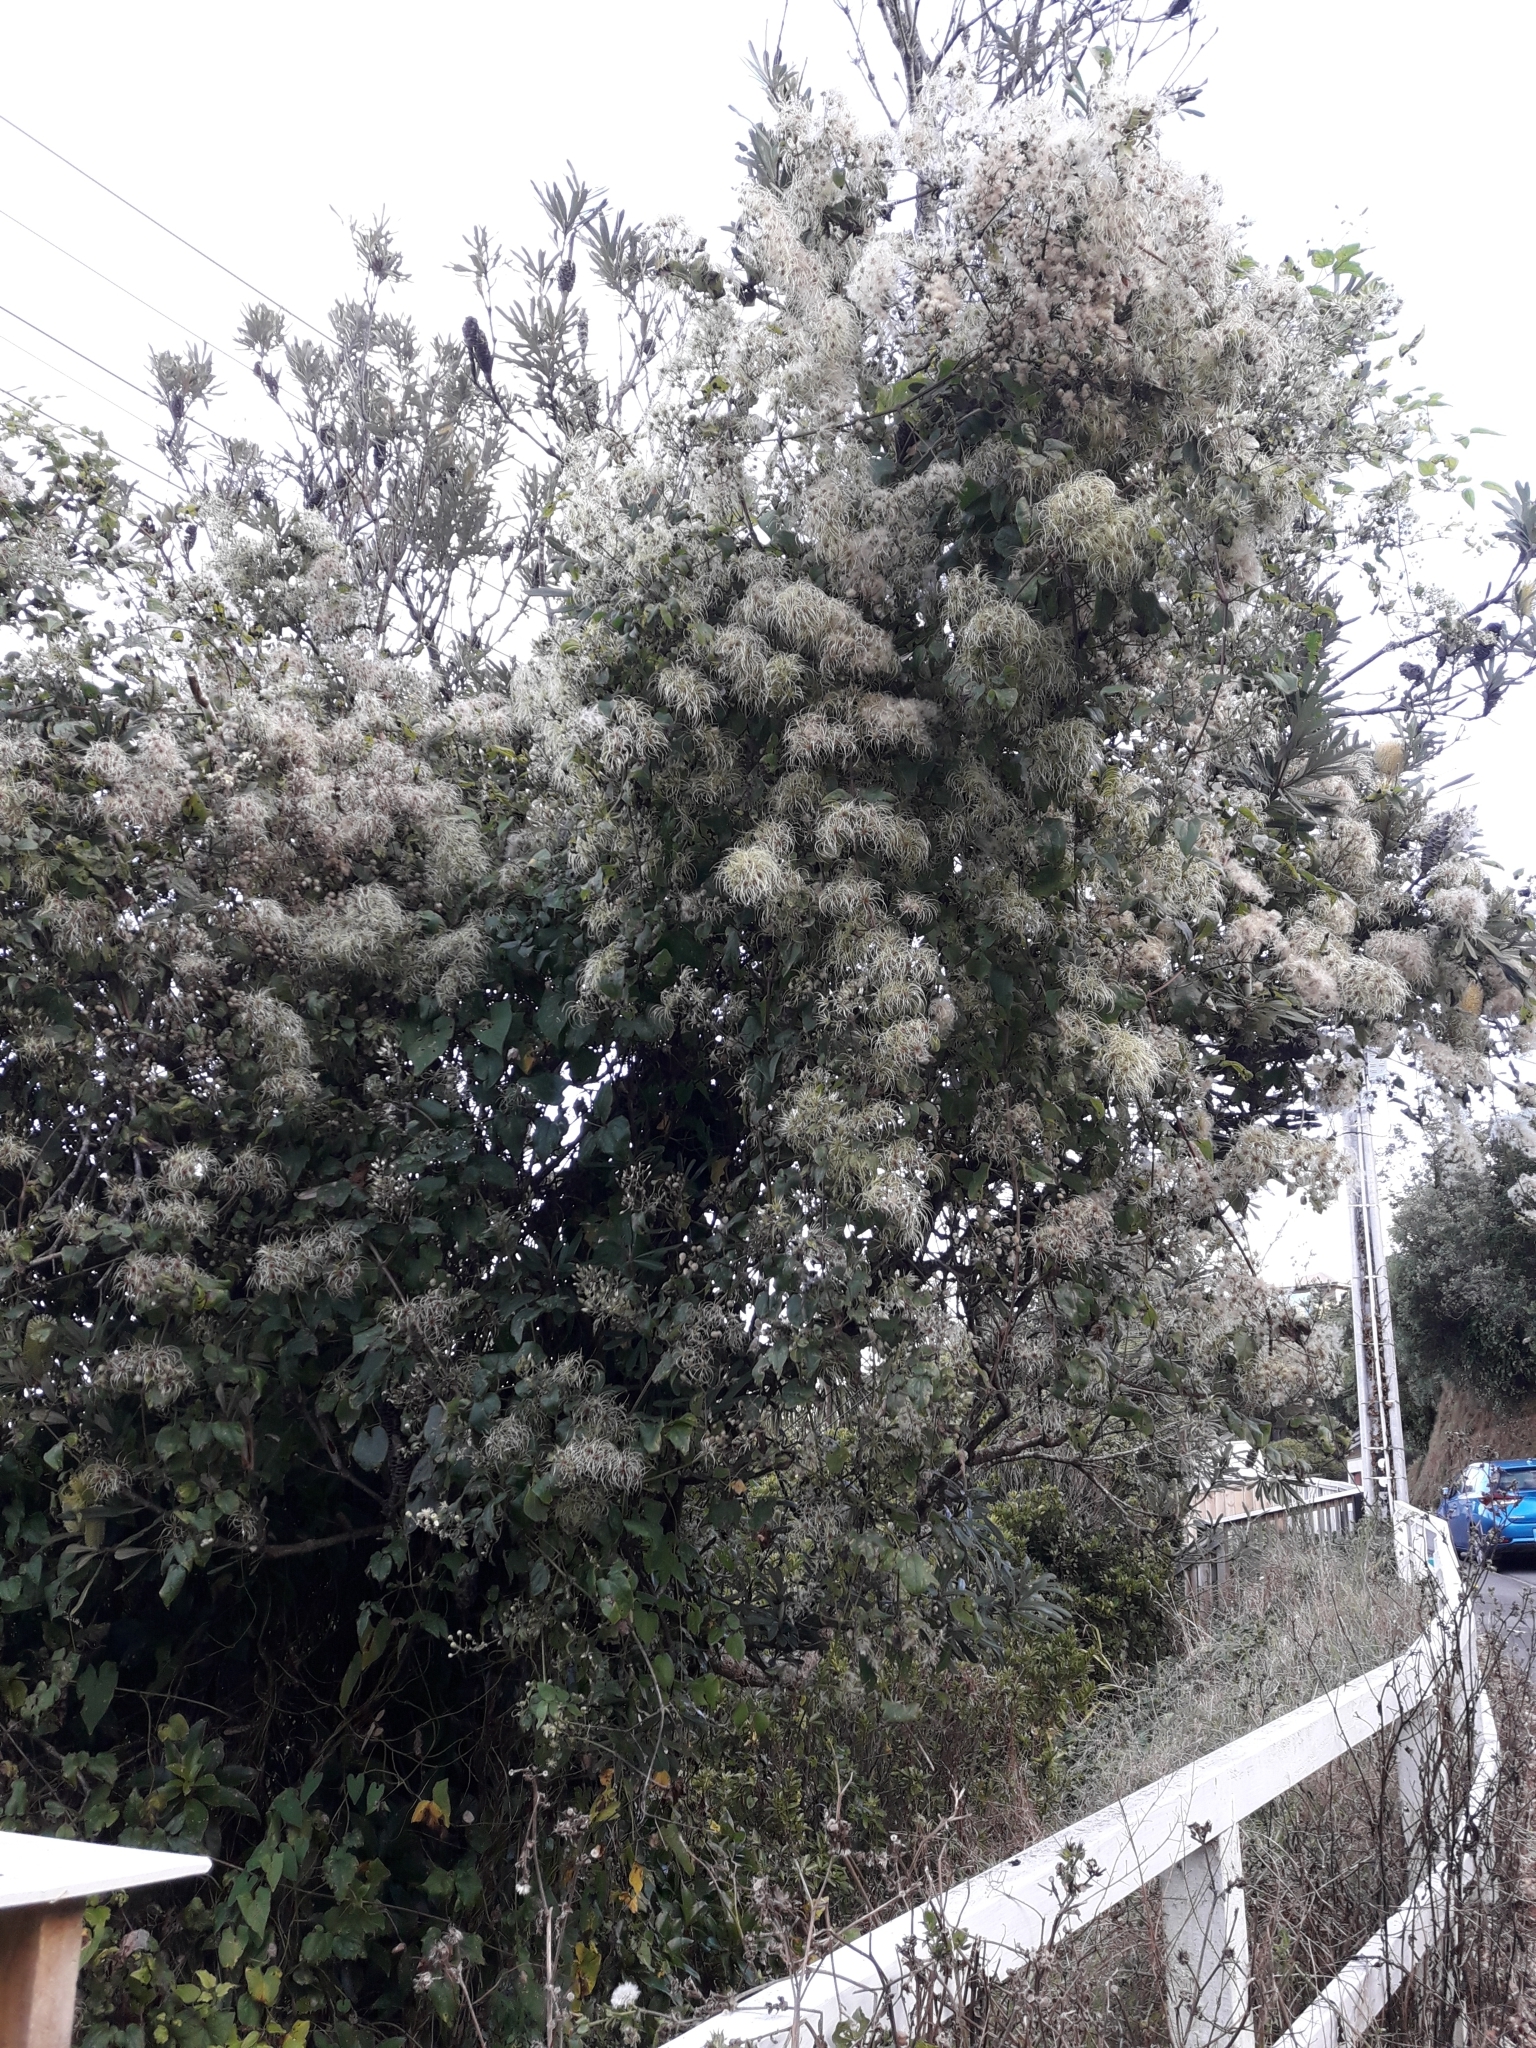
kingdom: Plantae
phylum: Tracheophyta
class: Magnoliopsida
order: Ranunculales
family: Ranunculaceae
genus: Clematis
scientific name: Clematis vitalba
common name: Evergreen clematis
